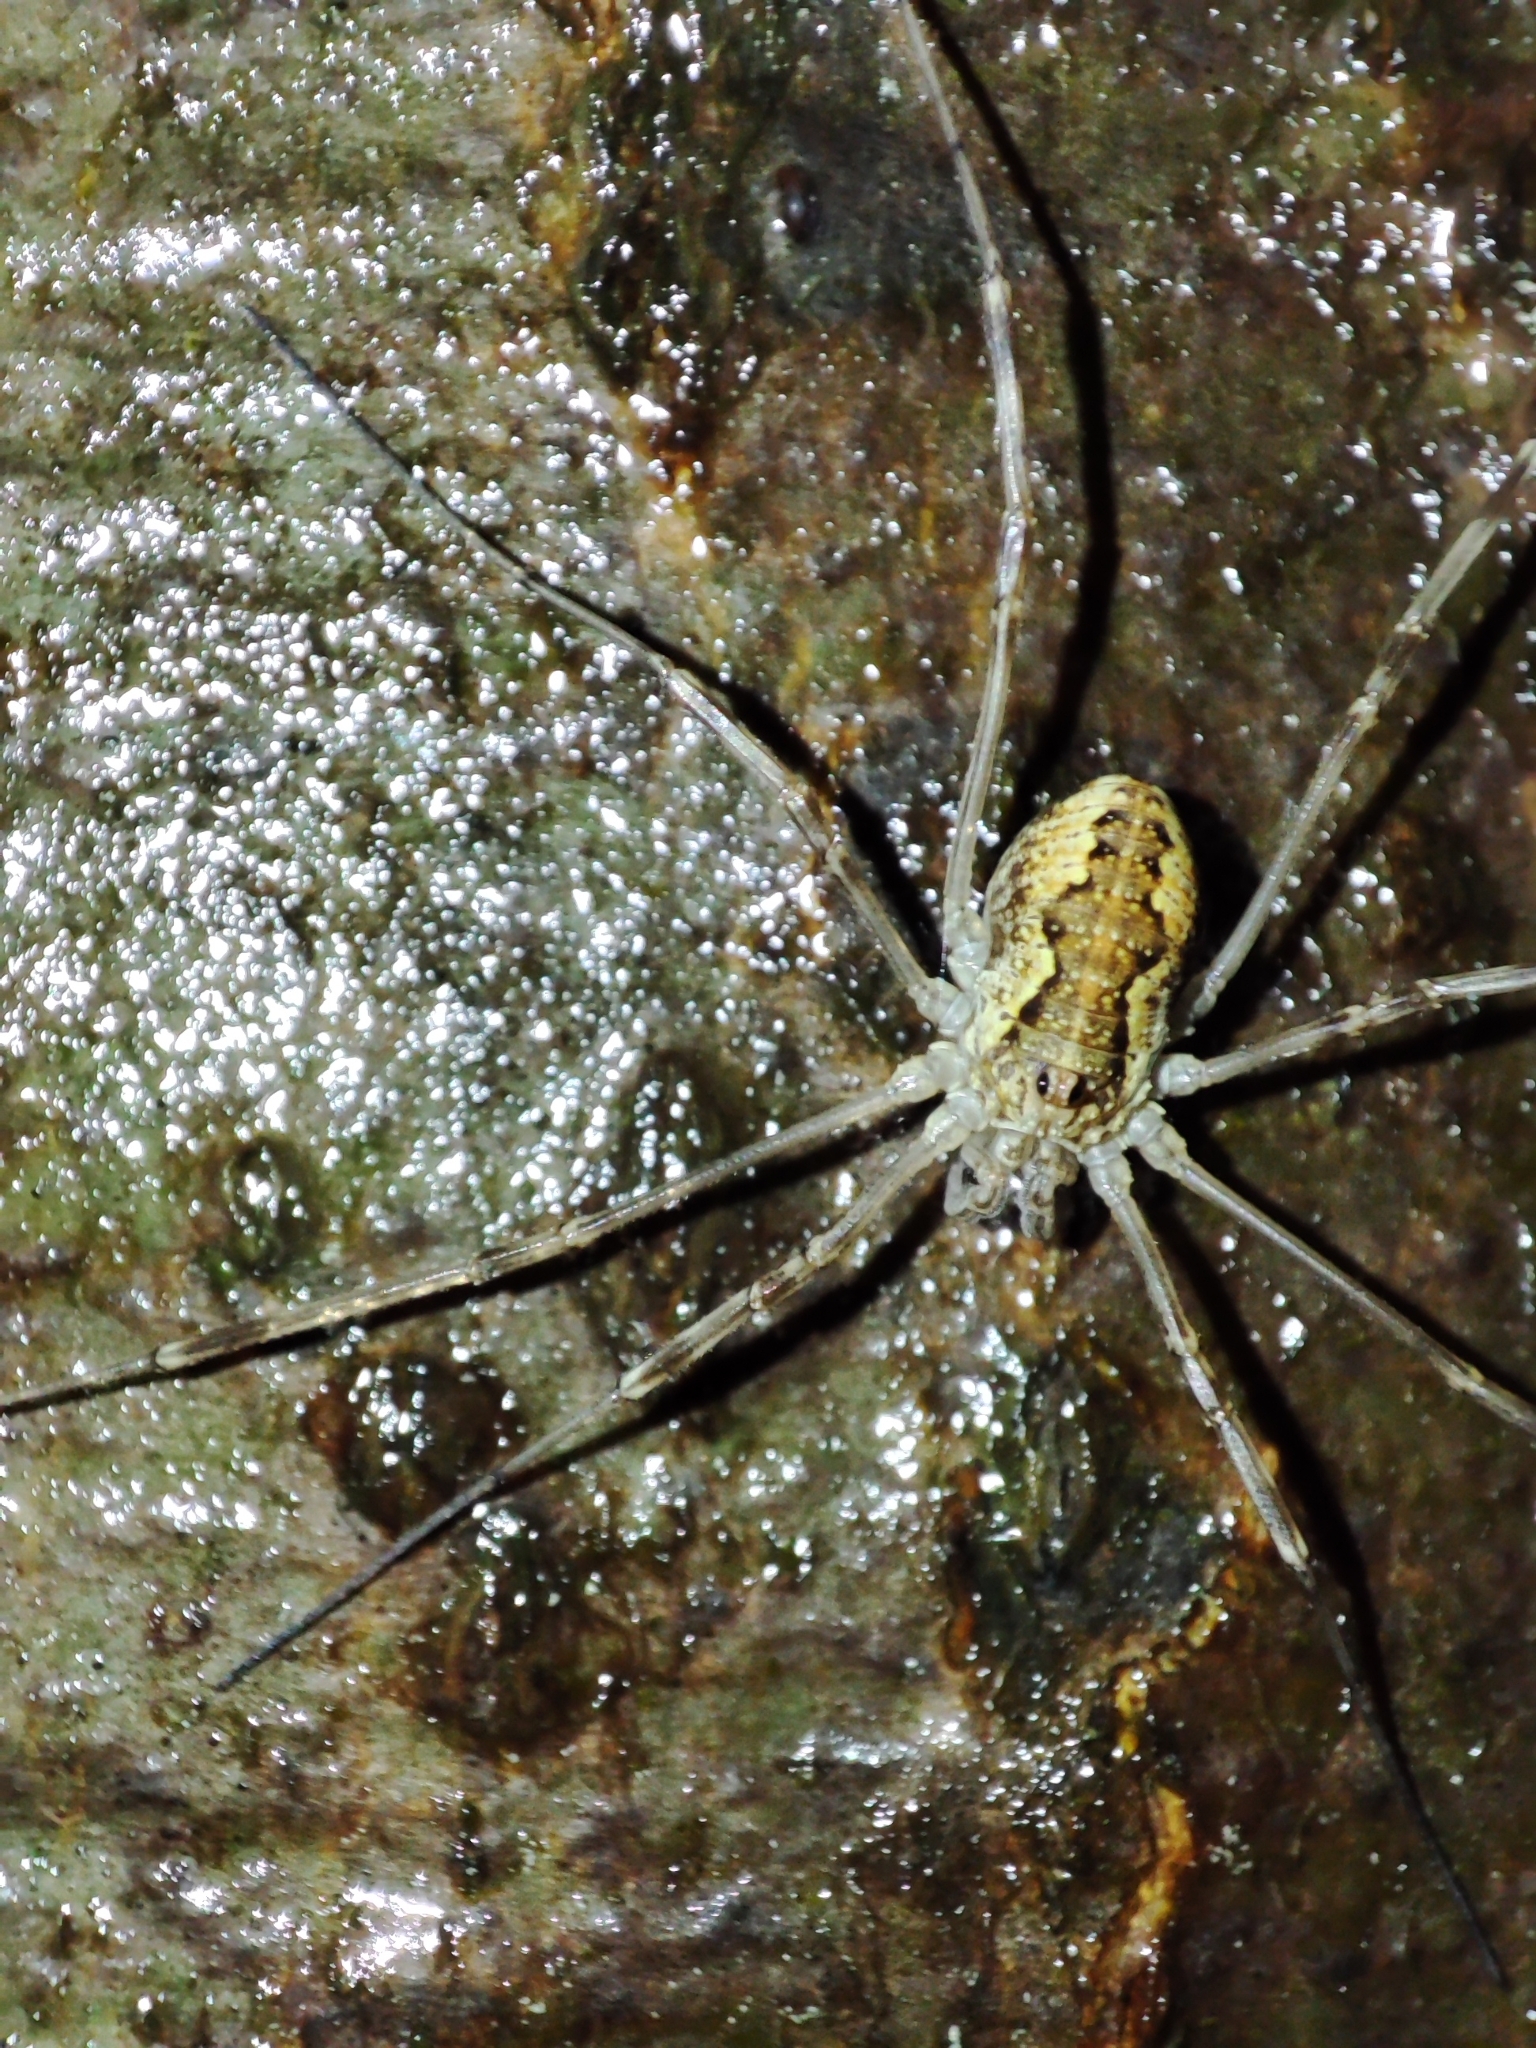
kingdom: Animalia
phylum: Arthropoda
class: Arachnida
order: Opiliones
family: Phalangiidae
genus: Mitopus
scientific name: Mitopus morio
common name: Saddleback harvestman
